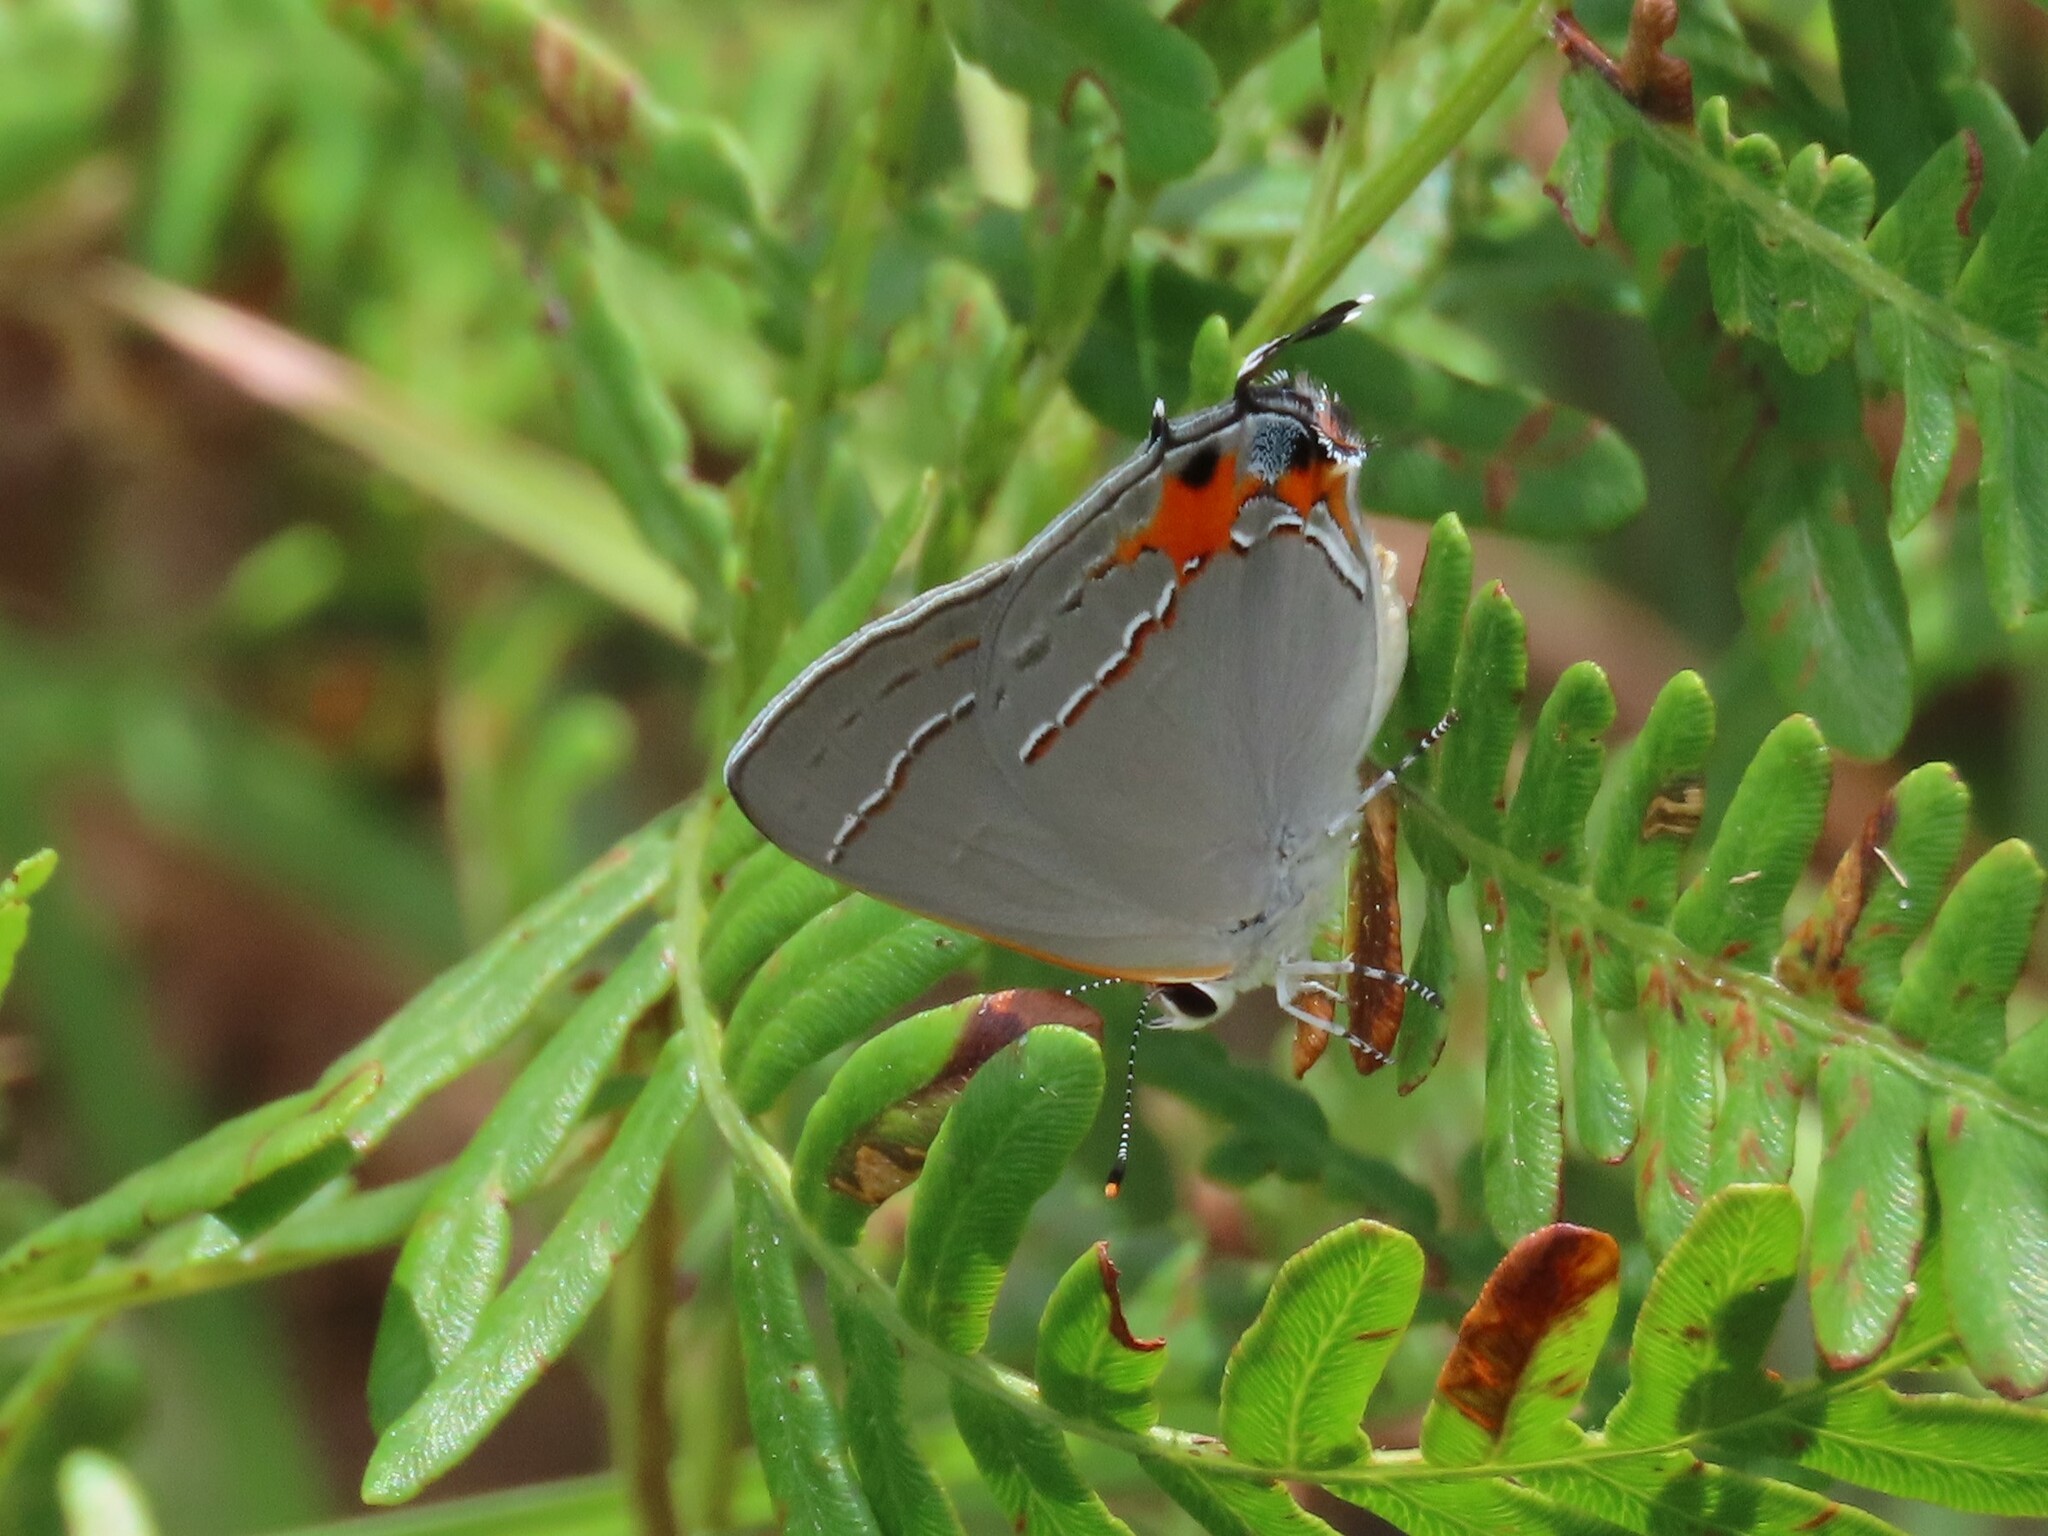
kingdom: Animalia
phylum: Arthropoda
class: Insecta
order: Lepidoptera
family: Lycaenidae
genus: Strymon
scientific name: Strymon melinus
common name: Gray hairstreak
